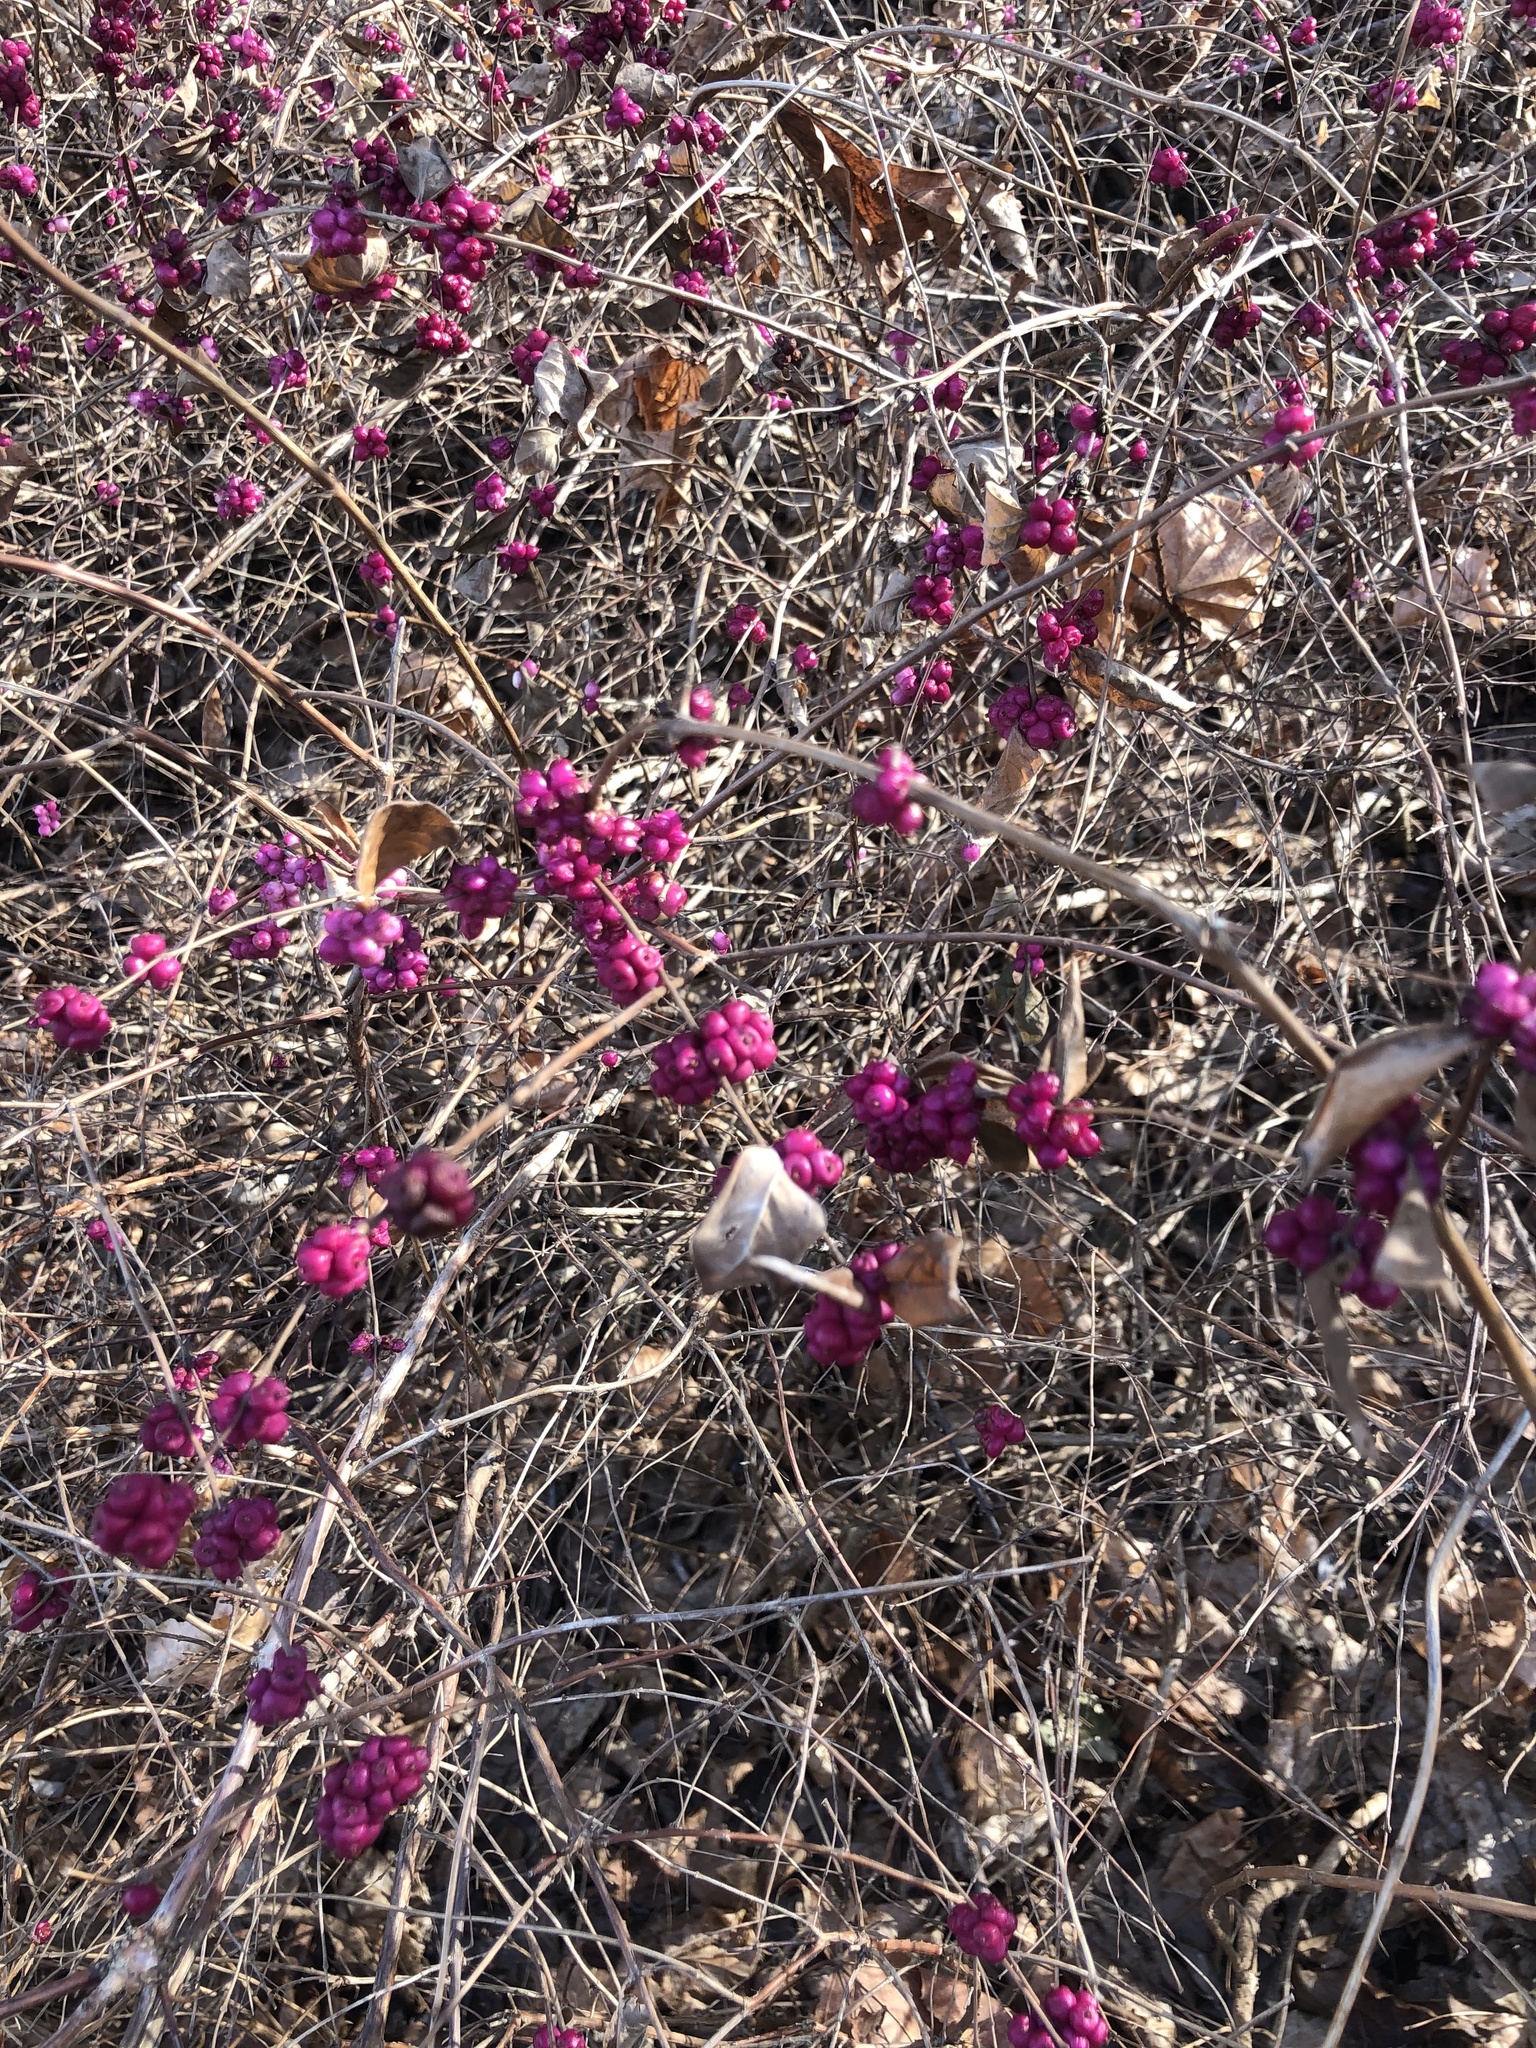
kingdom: Plantae
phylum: Tracheophyta
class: Magnoliopsida
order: Dipsacales
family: Caprifoliaceae
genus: Symphoricarpos
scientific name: Symphoricarpos orbiculatus
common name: Coralberry
